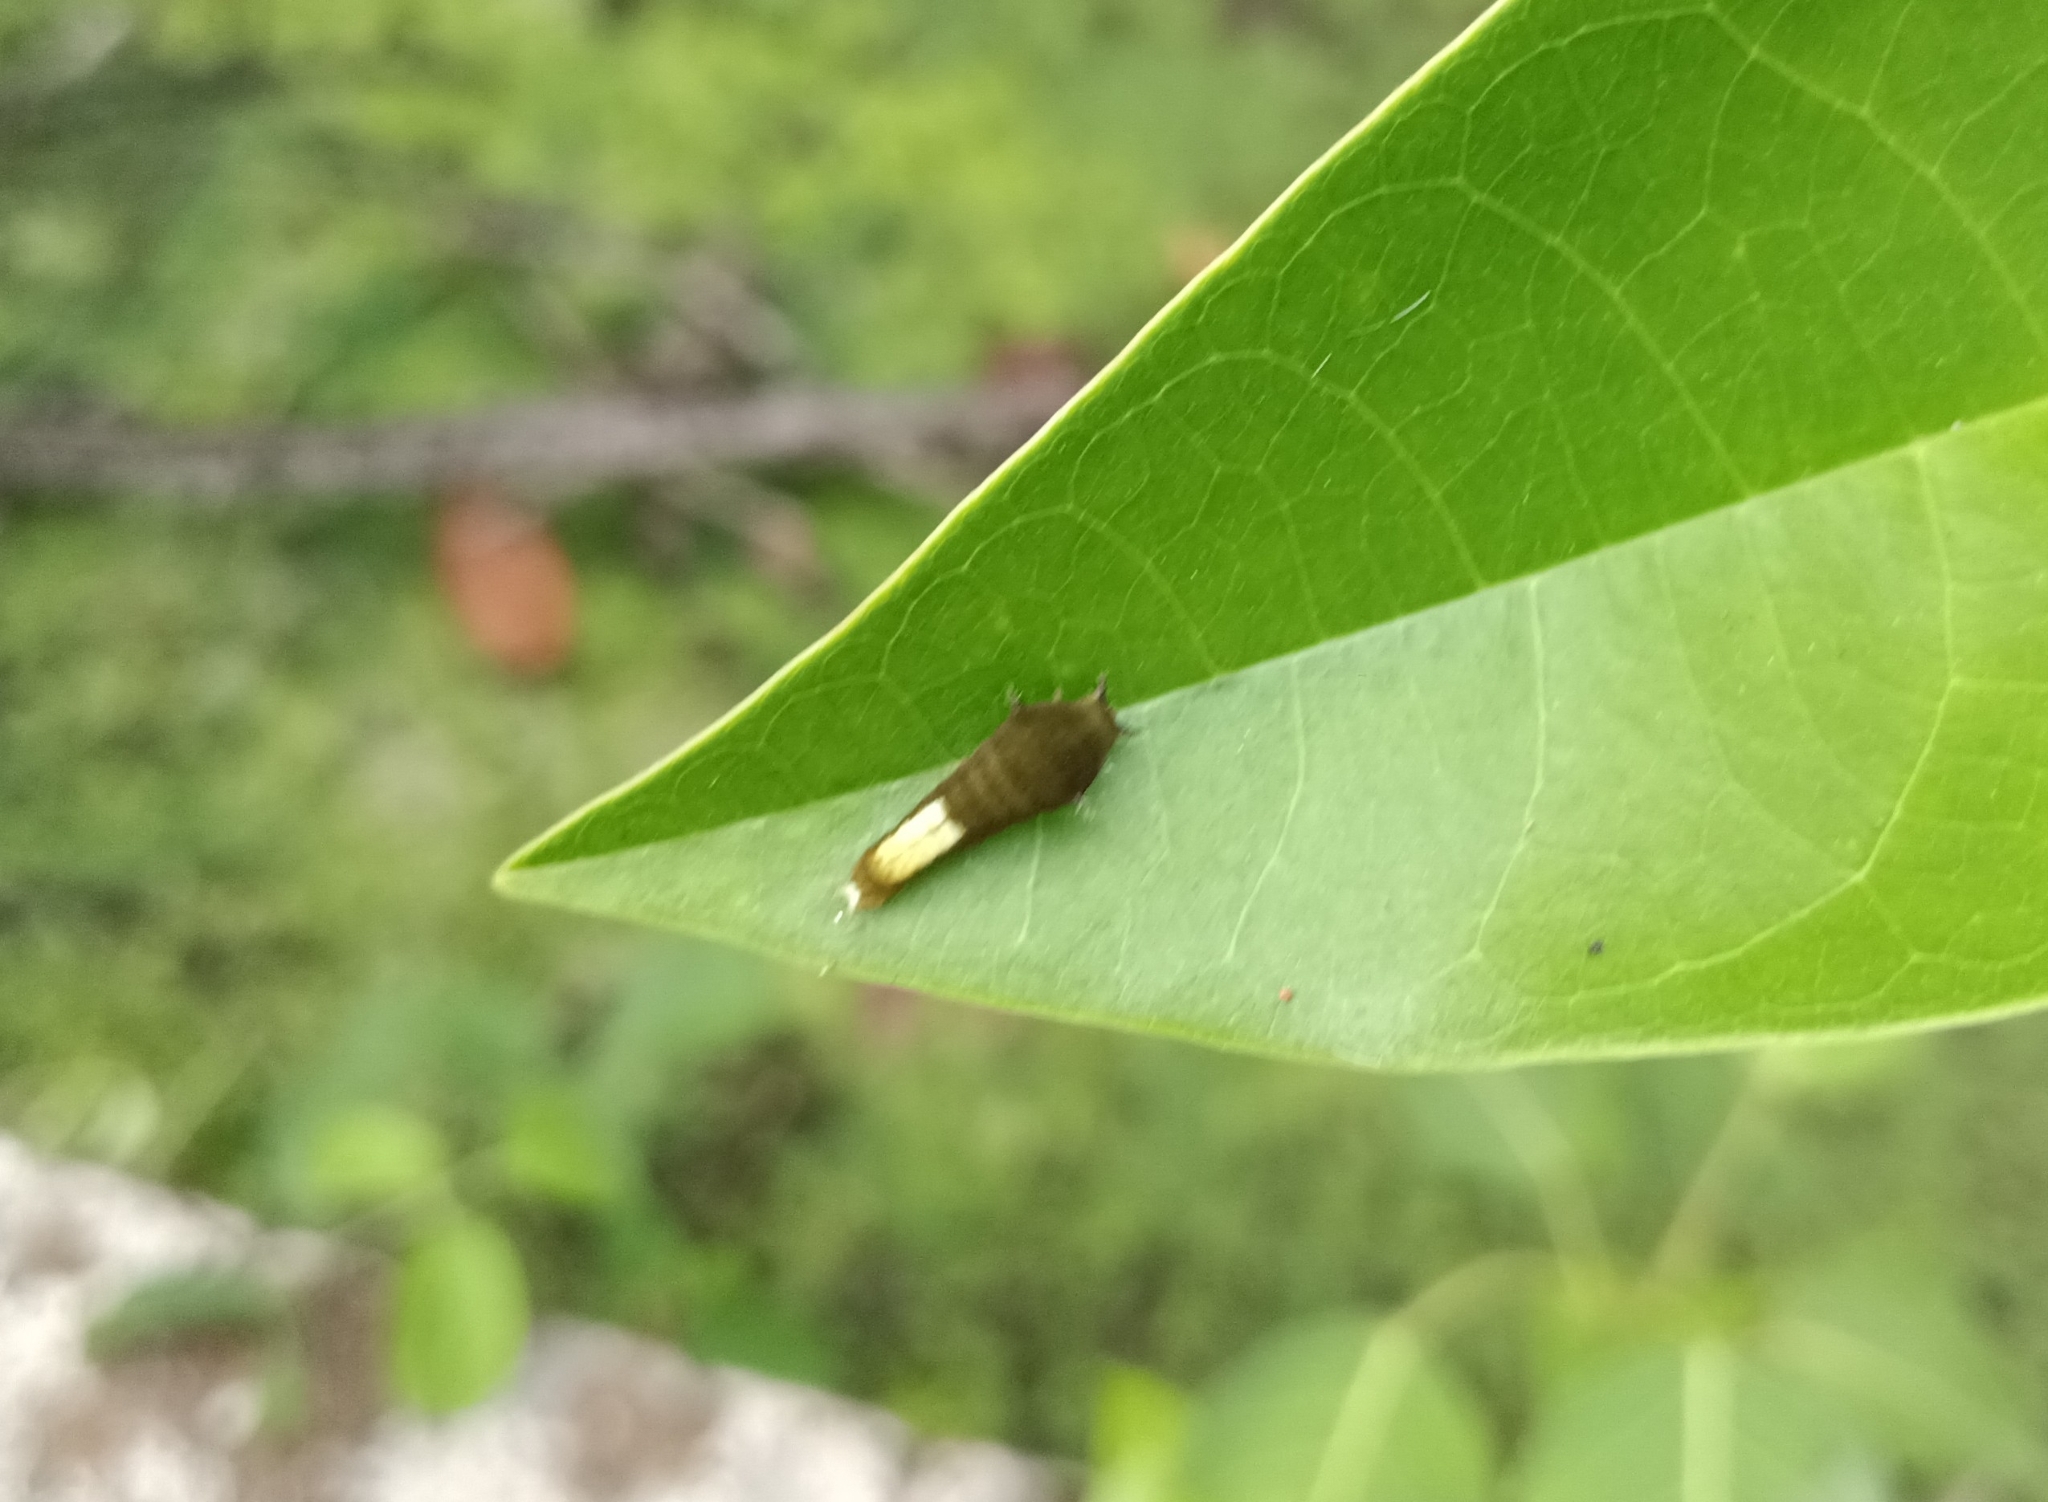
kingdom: Animalia
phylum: Arthropoda
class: Insecta
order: Lepidoptera
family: Papilionidae
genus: Graphium
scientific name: Graphium agamemnon
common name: Tailed jay
